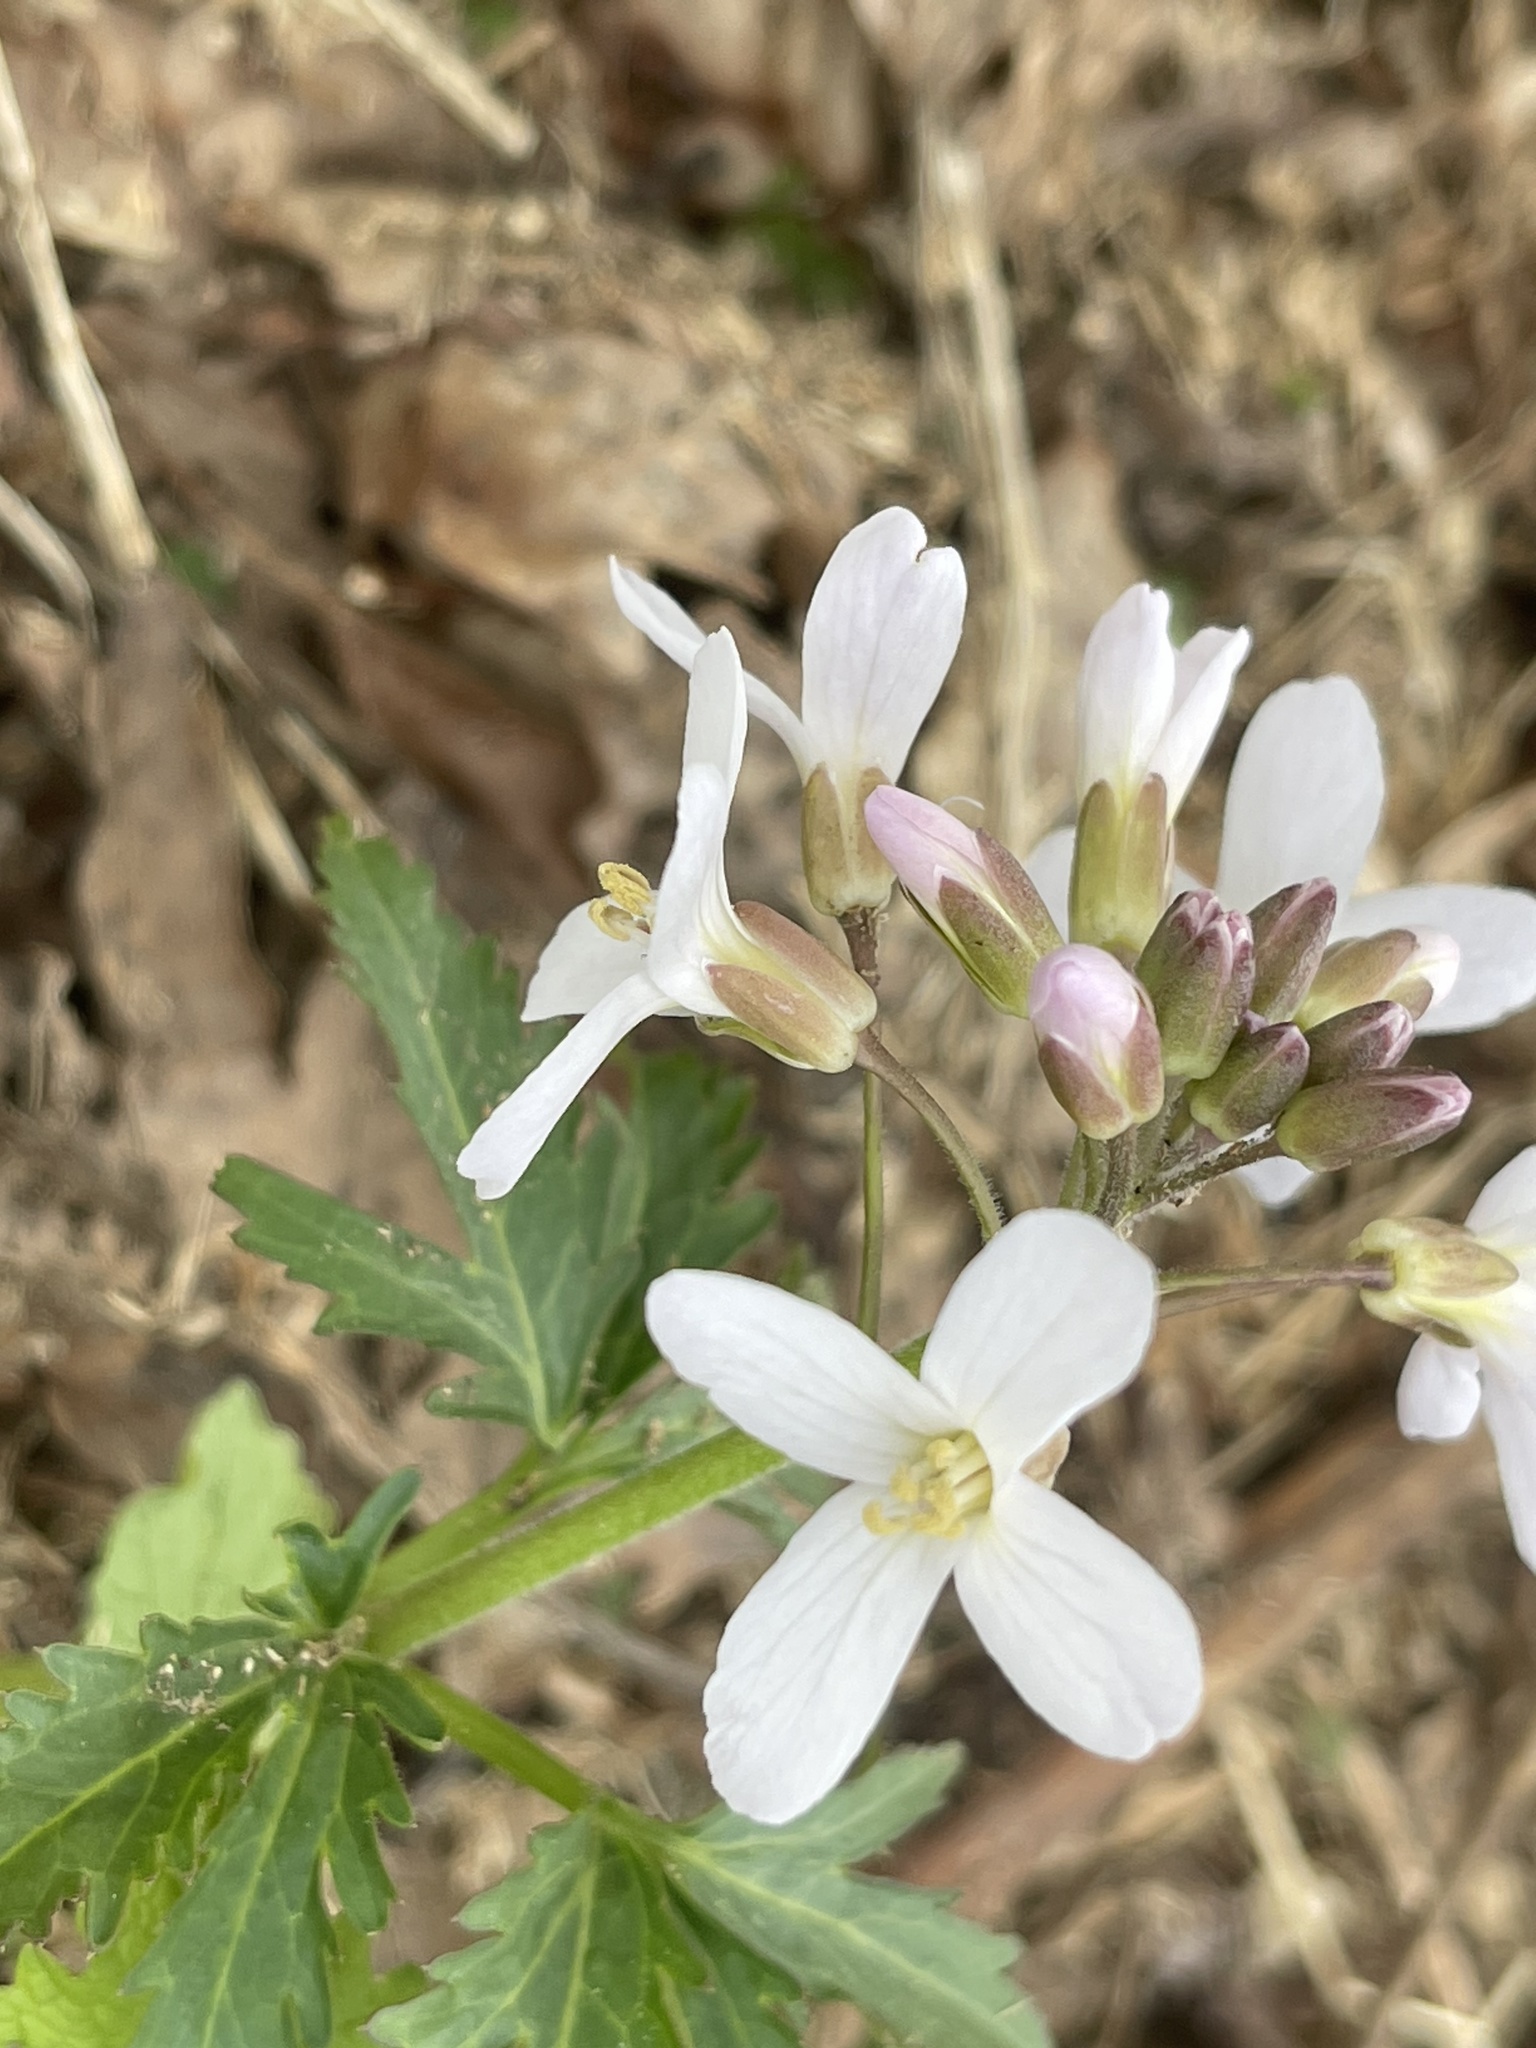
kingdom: Plantae
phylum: Tracheophyta
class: Magnoliopsida
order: Brassicales
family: Brassicaceae
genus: Cardamine
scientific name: Cardamine concatenata
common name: Cut-leaf toothcup
